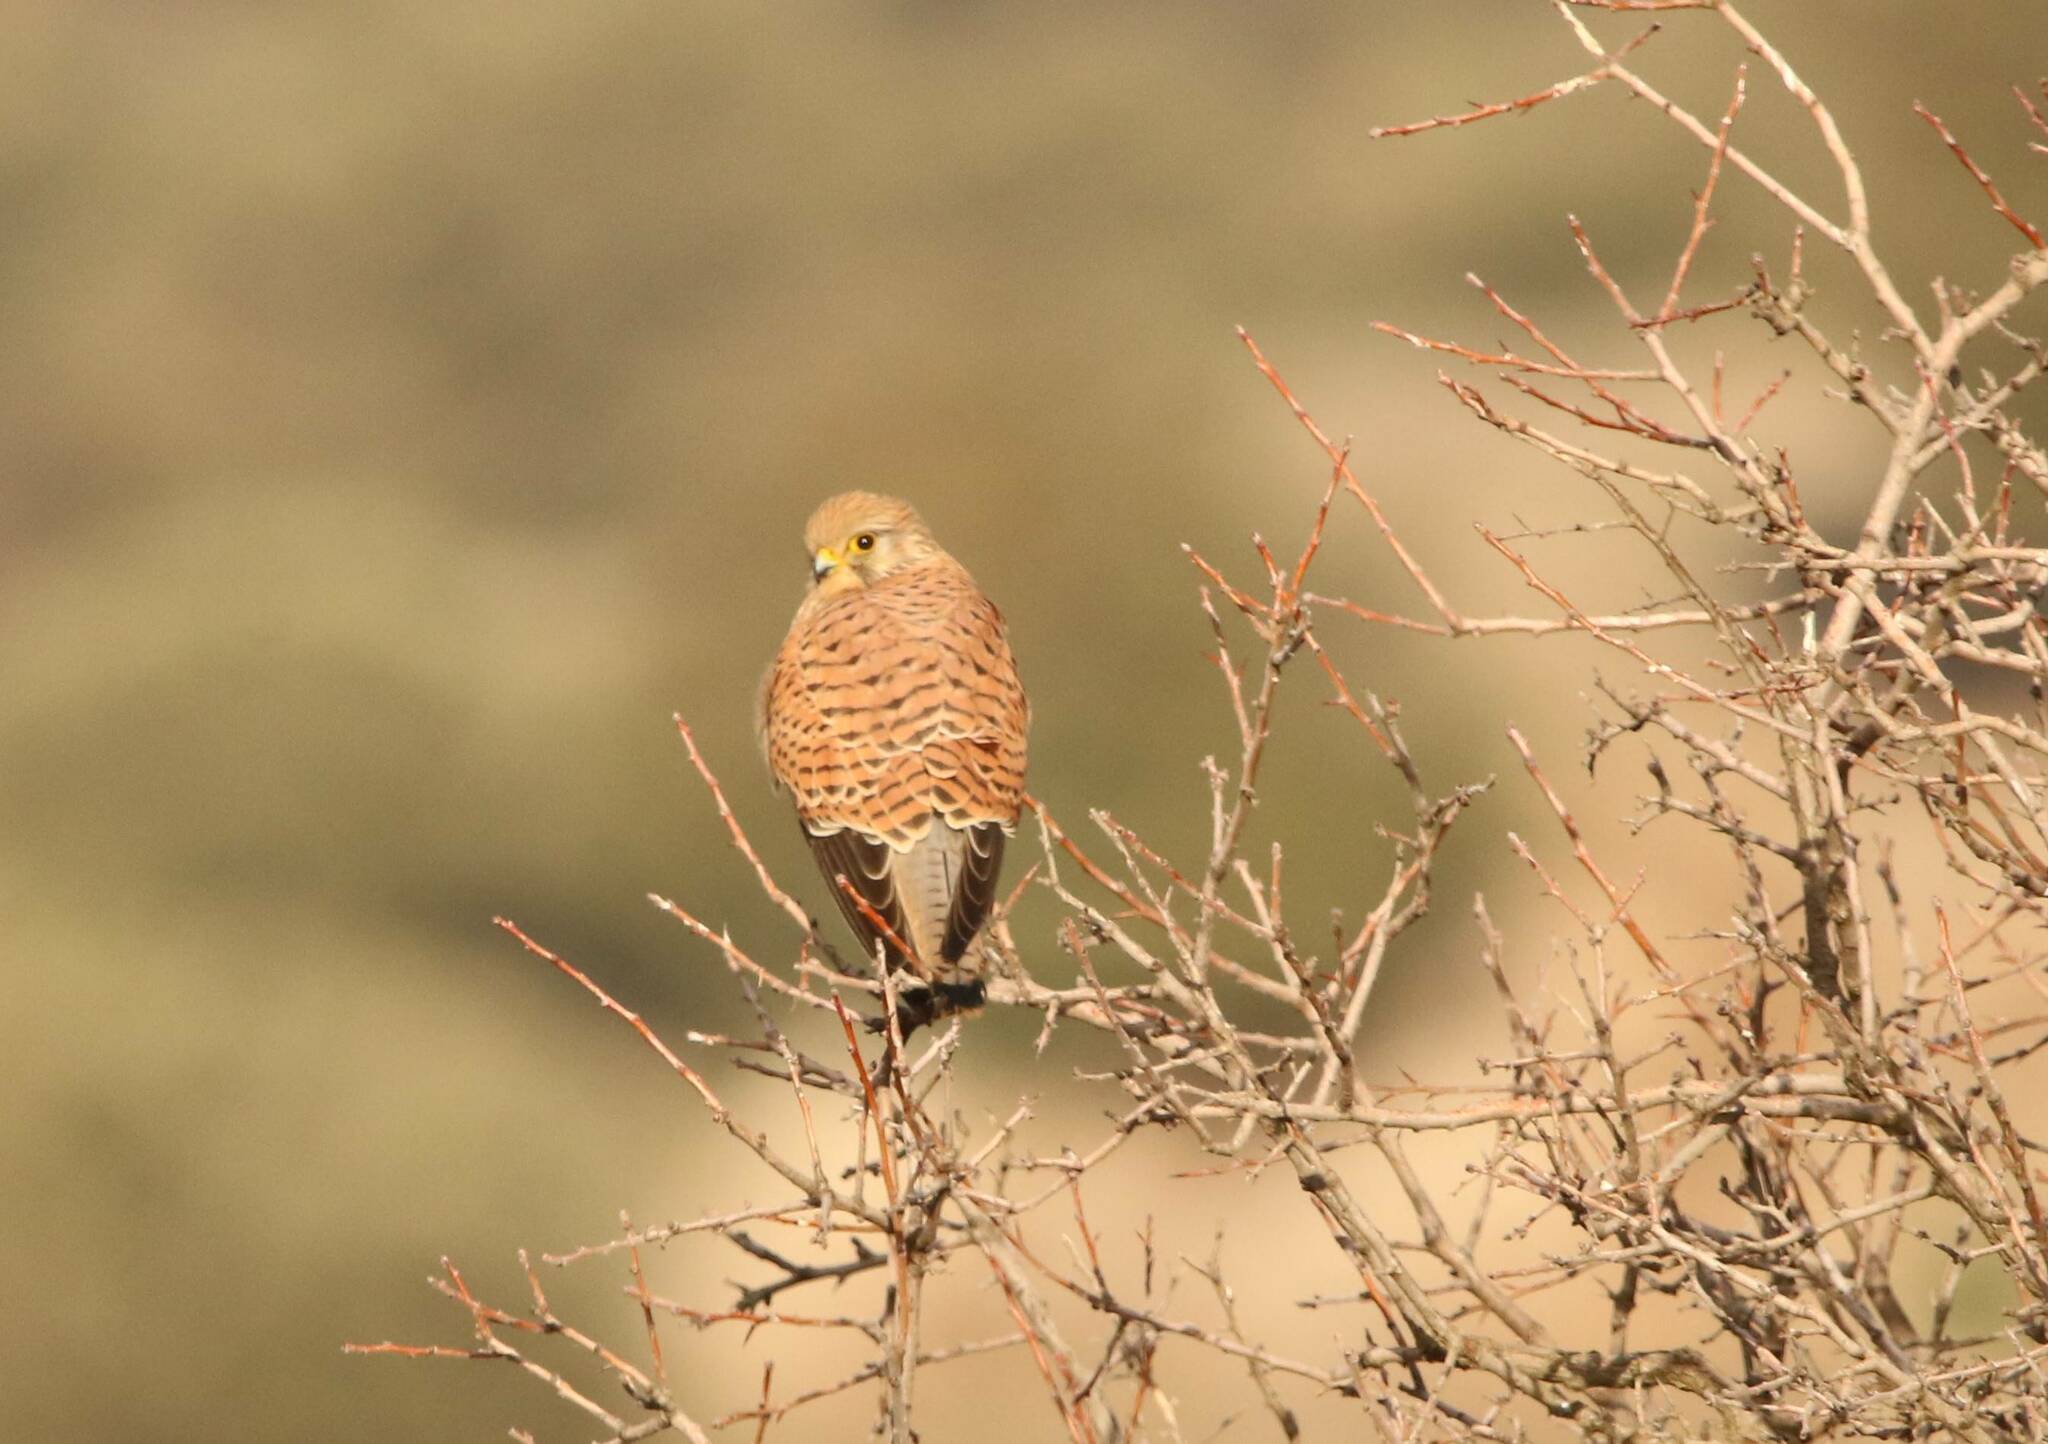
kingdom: Animalia
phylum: Chordata
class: Aves
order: Falconiformes
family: Falconidae
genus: Falco
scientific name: Falco tinnunculus
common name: Common kestrel
